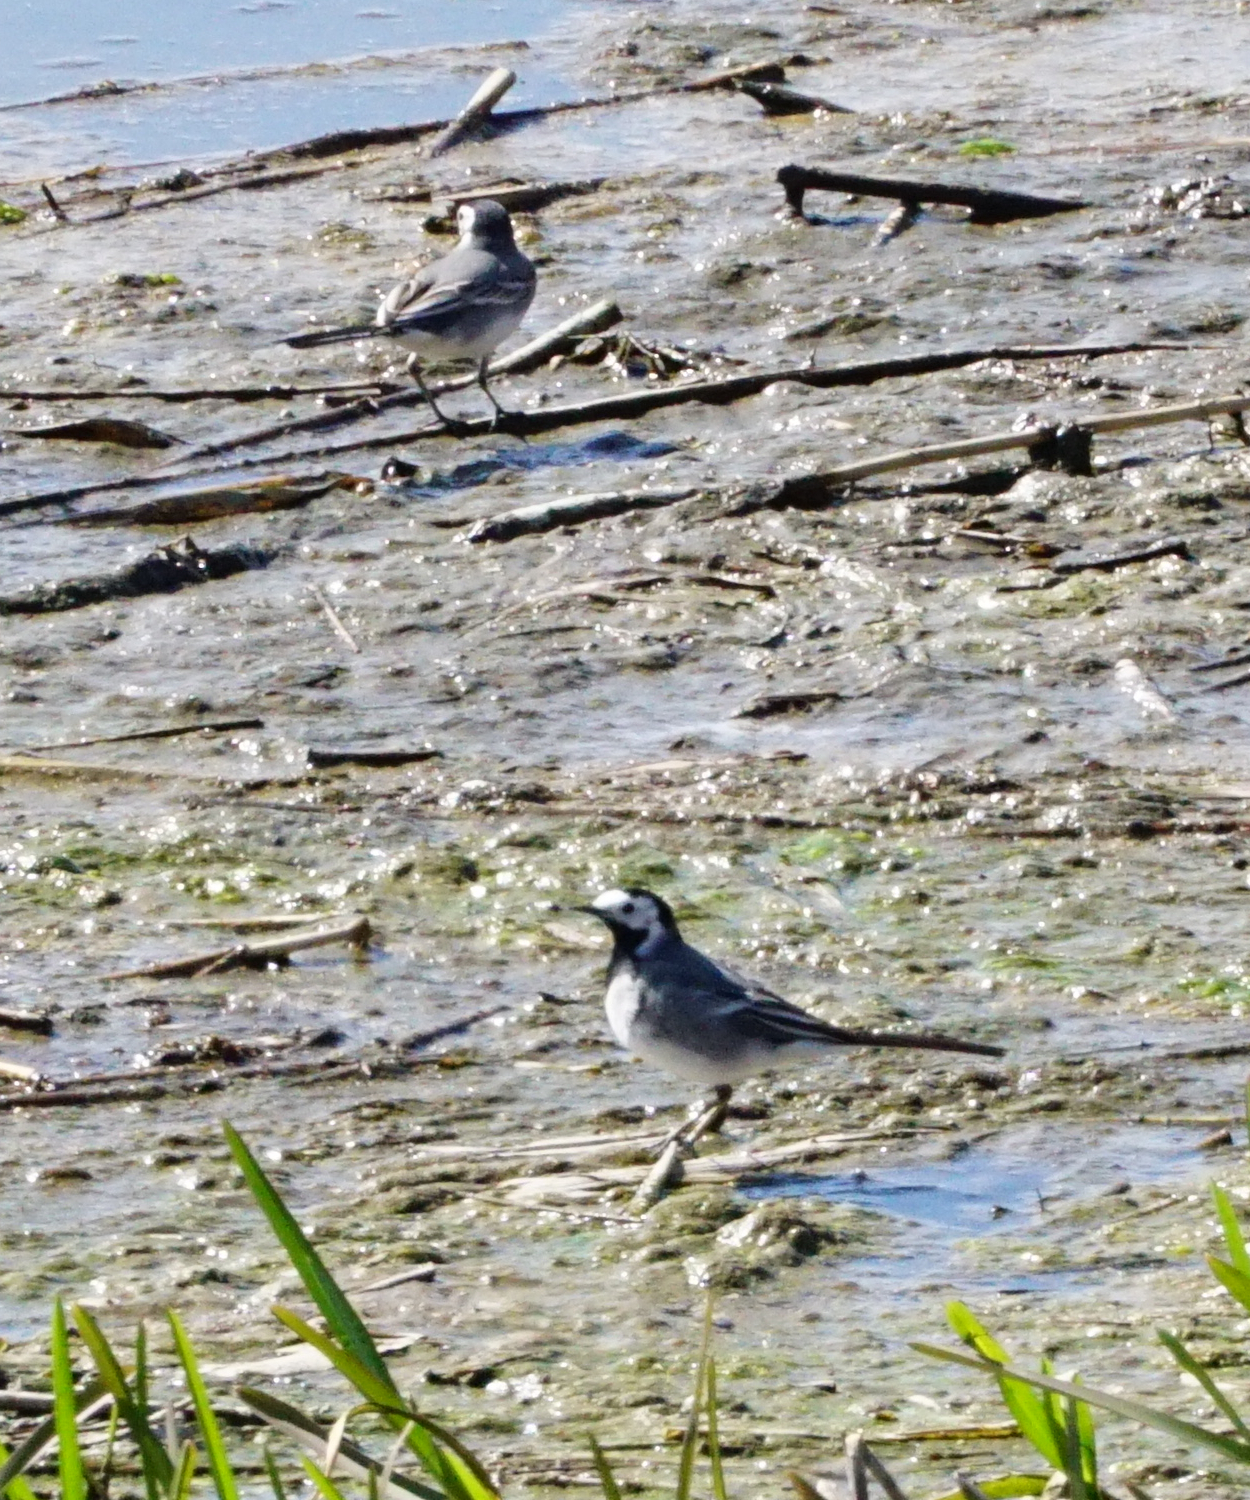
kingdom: Animalia
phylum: Chordata
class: Aves
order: Passeriformes
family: Motacillidae
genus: Motacilla
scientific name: Motacilla alba
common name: White wagtail
